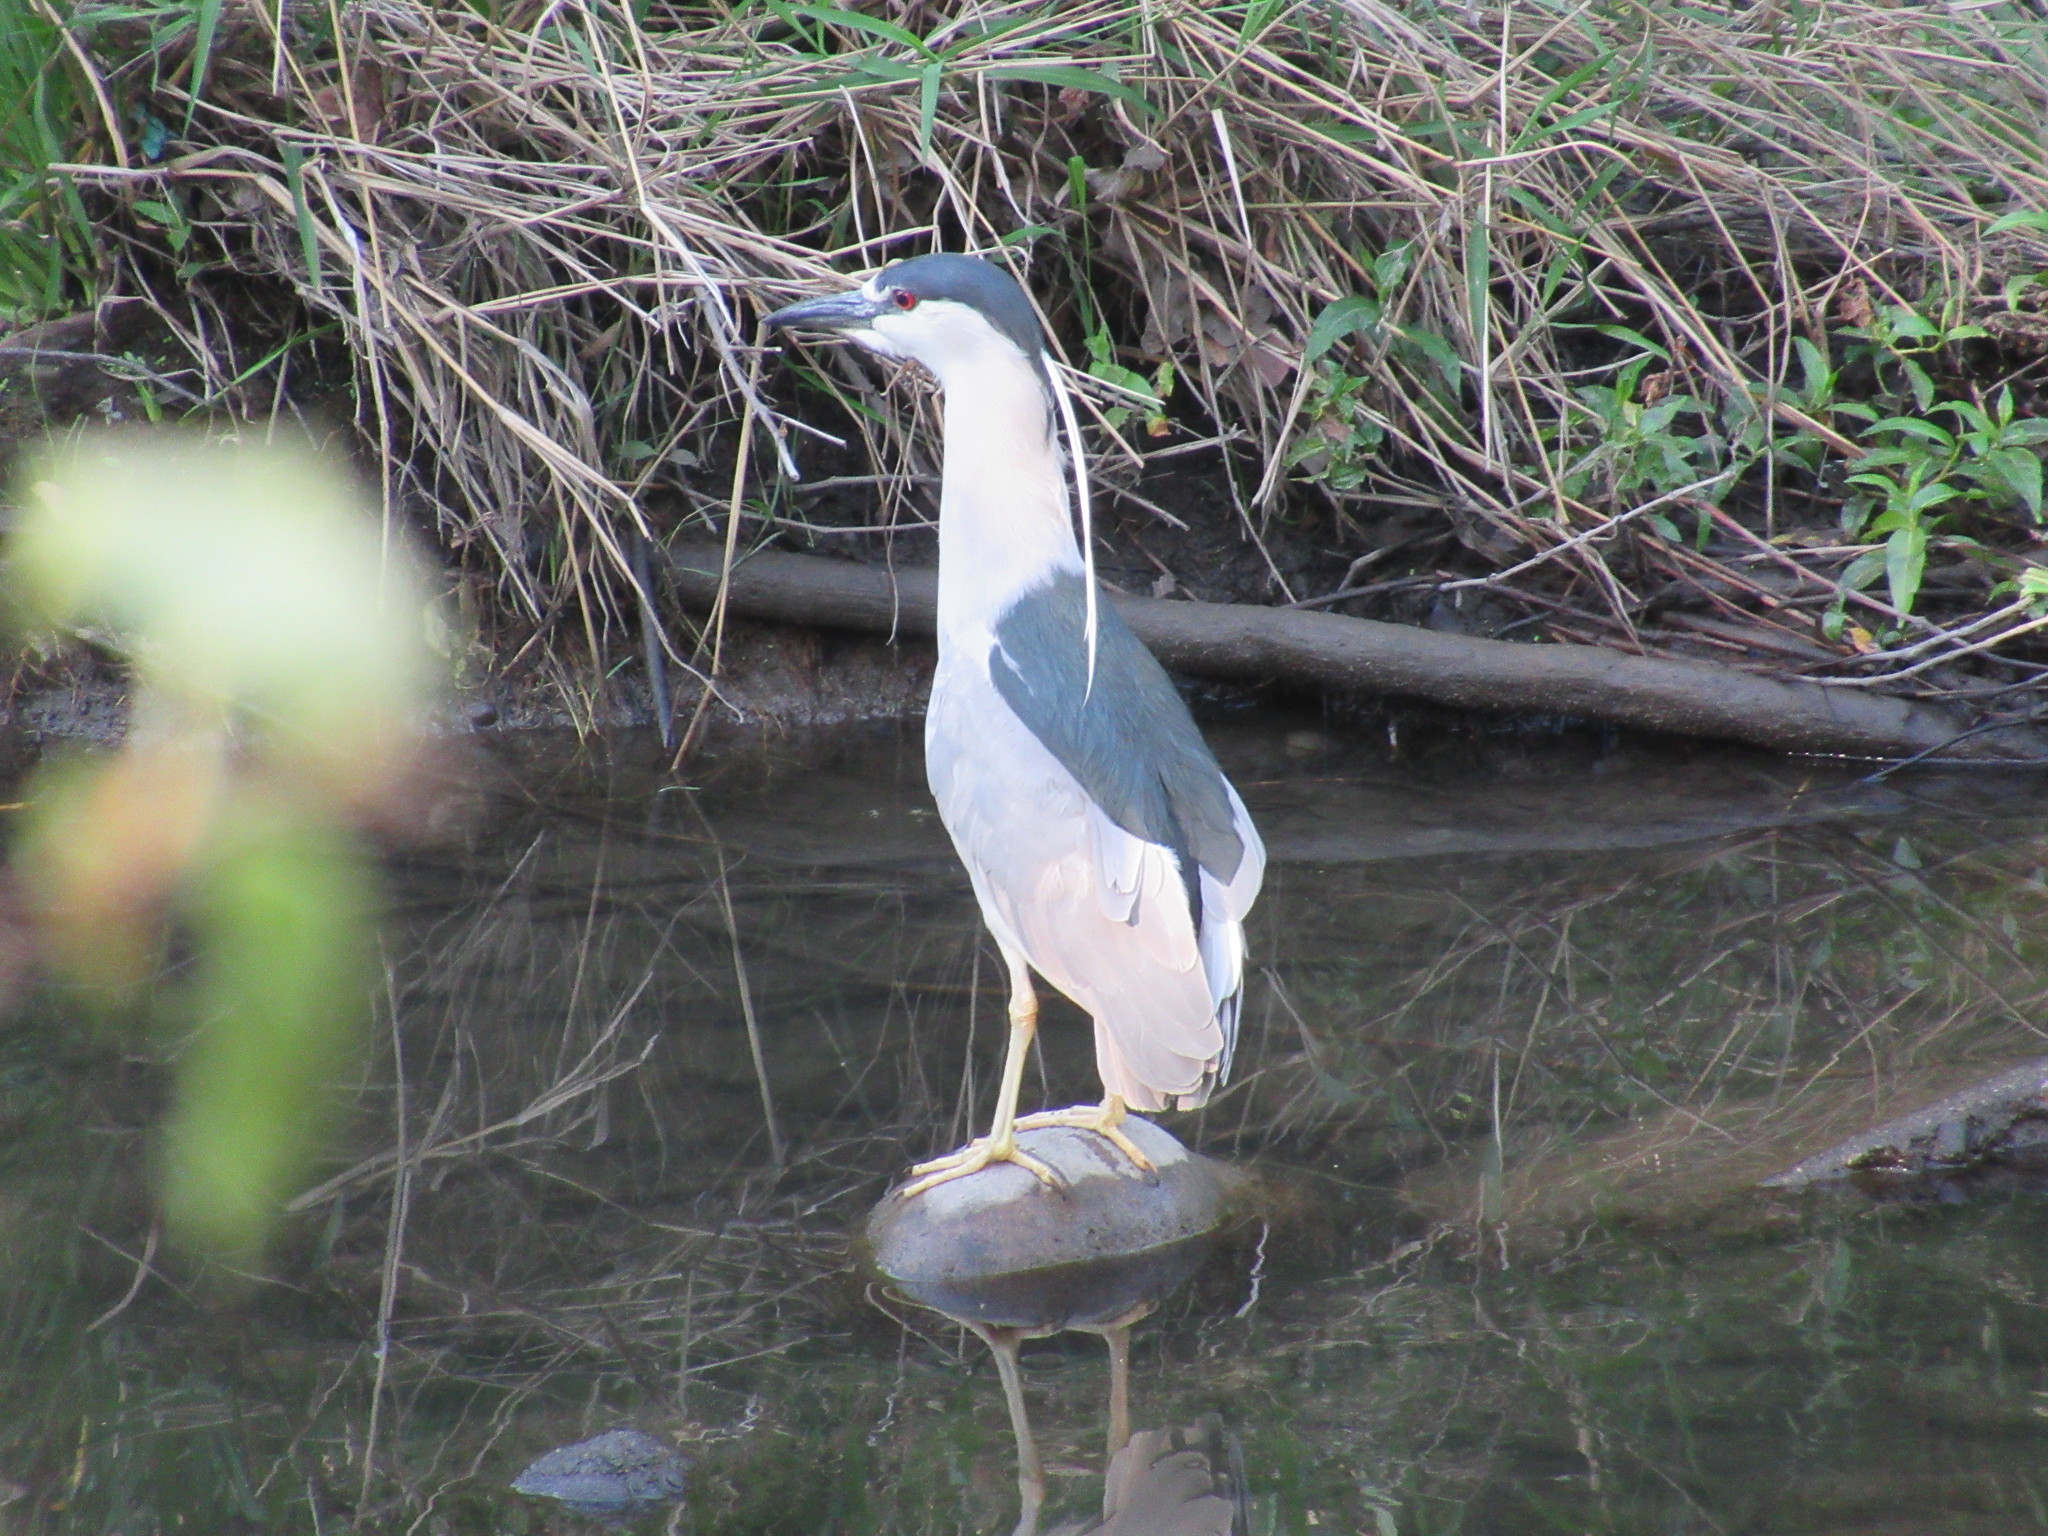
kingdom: Animalia
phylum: Chordata
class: Aves
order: Pelecaniformes
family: Ardeidae
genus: Nycticorax
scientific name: Nycticorax nycticorax
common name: Black-crowned night heron
